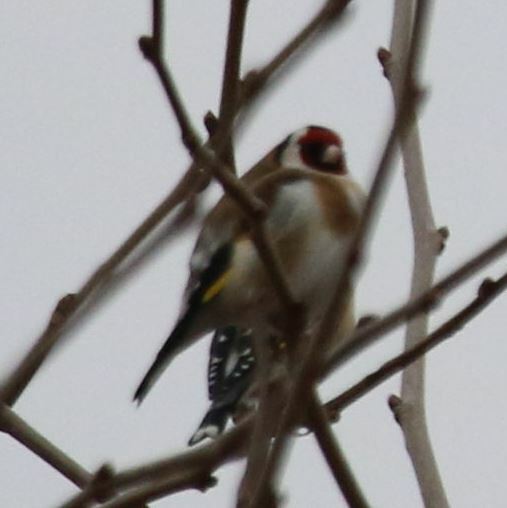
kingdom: Animalia
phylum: Chordata
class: Aves
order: Passeriformes
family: Fringillidae
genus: Carduelis
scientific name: Carduelis carduelis
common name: European goldfinch
